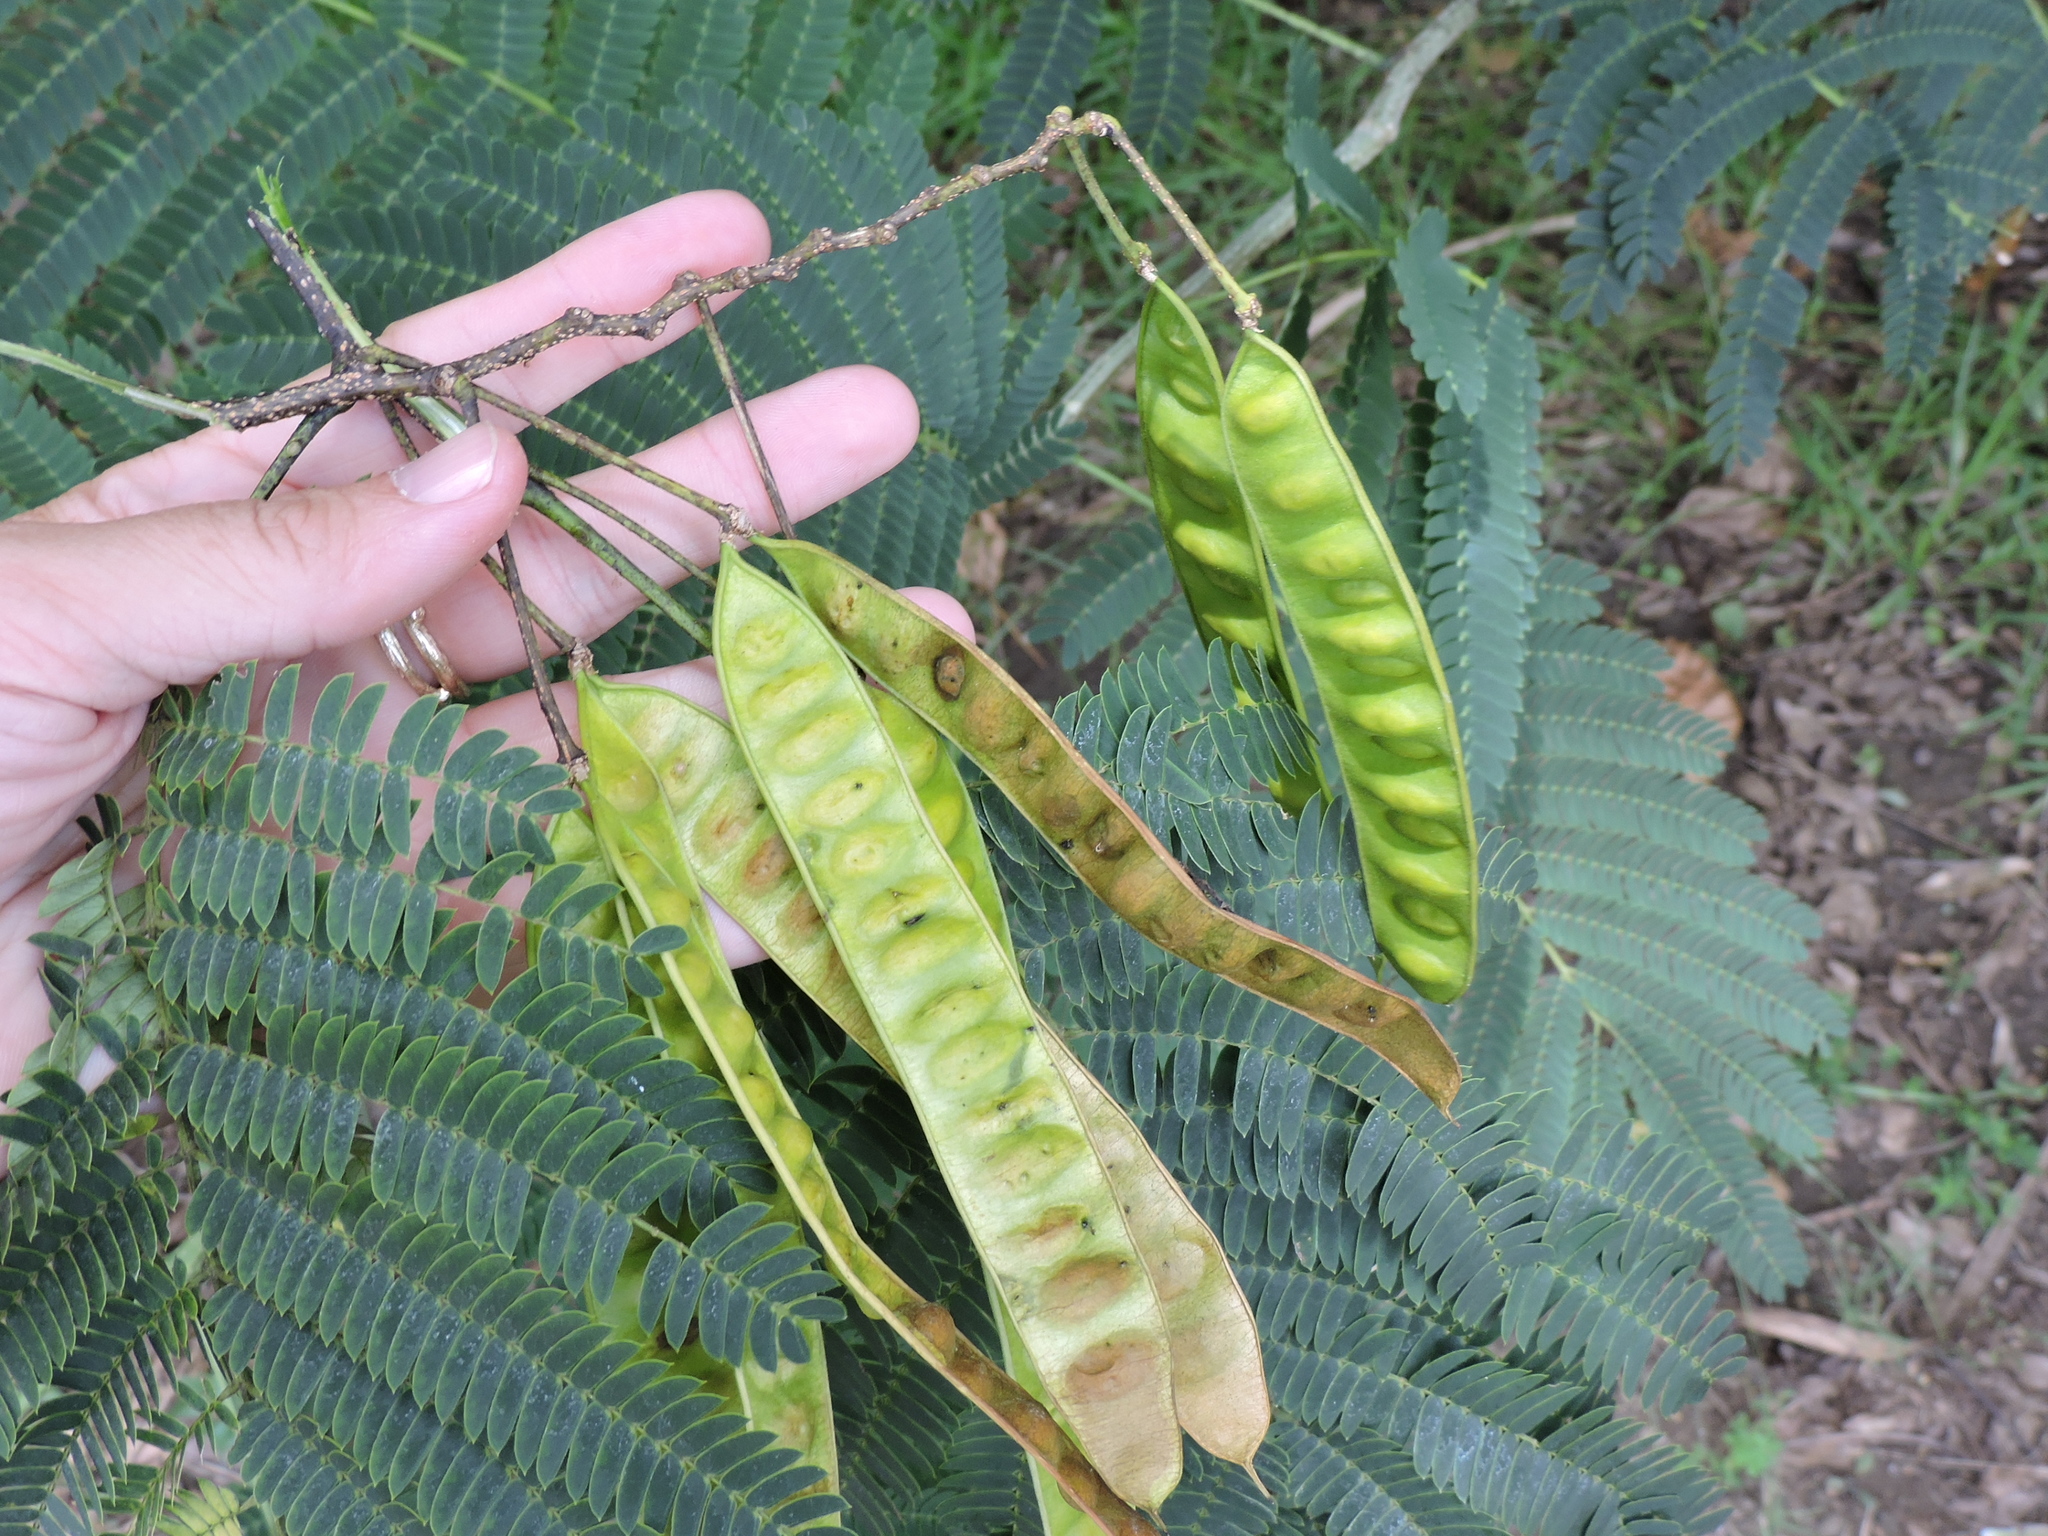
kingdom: Plantae
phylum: Tracheophyta
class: Magnoliopsida
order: Fabales
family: Fabaceae
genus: Albizia
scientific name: Albizia julibrissin
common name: Silktree
